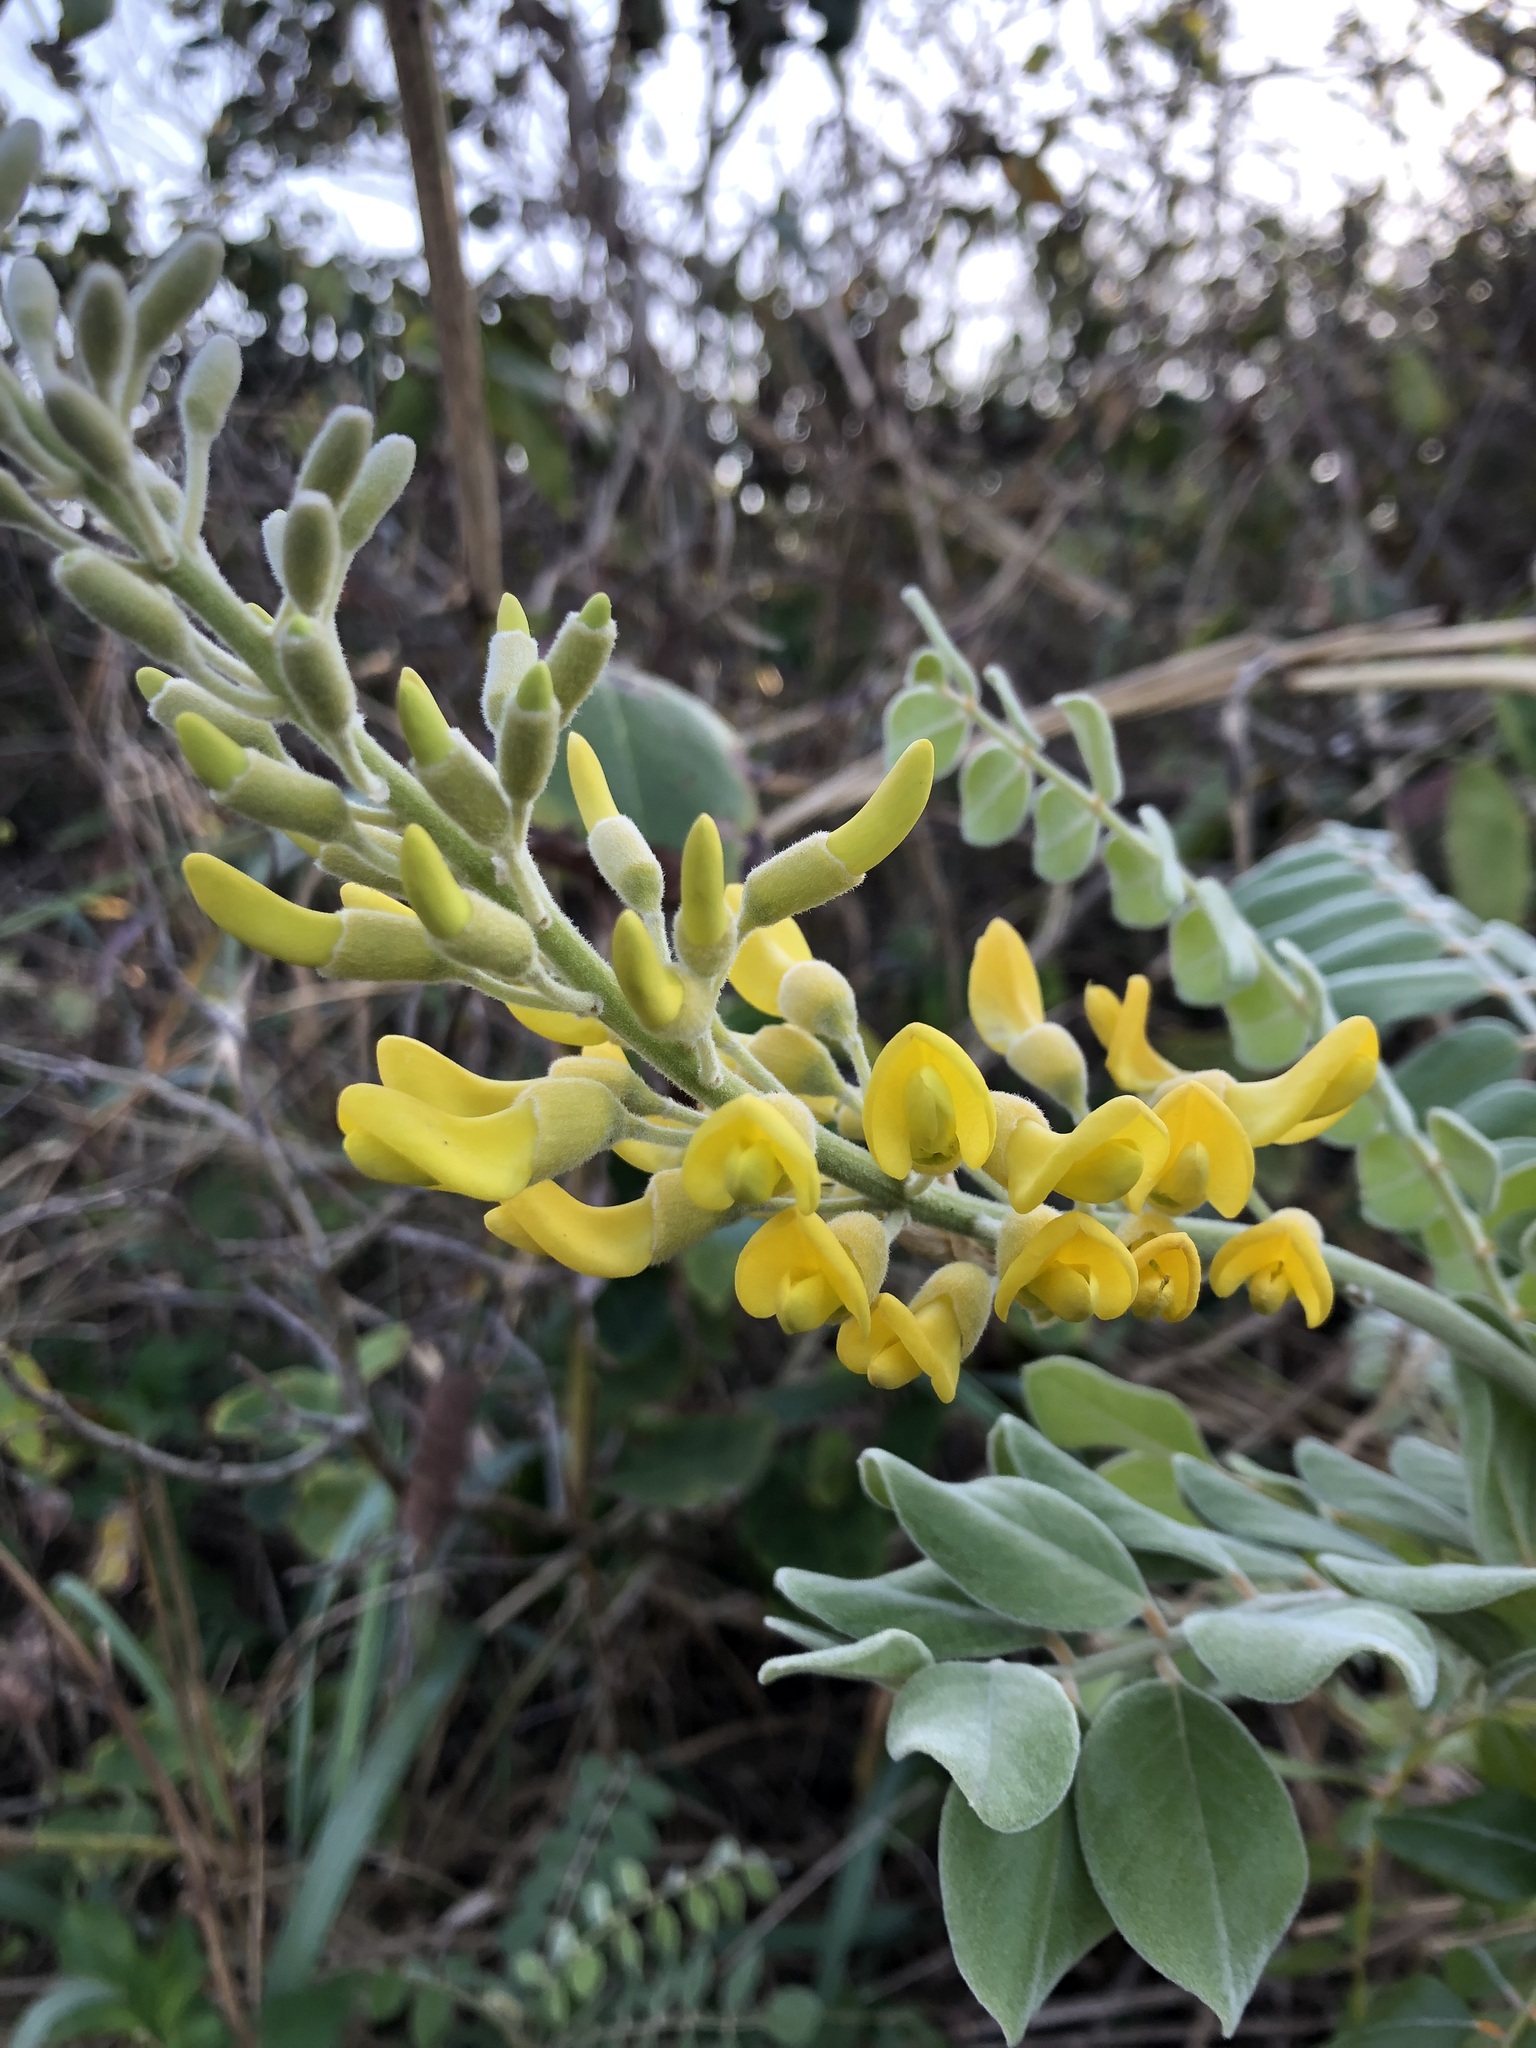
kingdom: Plantae
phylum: Tracheophyta
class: Magnoliopsida
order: Fabales
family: Fabaceae
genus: Sophora
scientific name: Sophora tomentosa
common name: Yellow necklacepod
